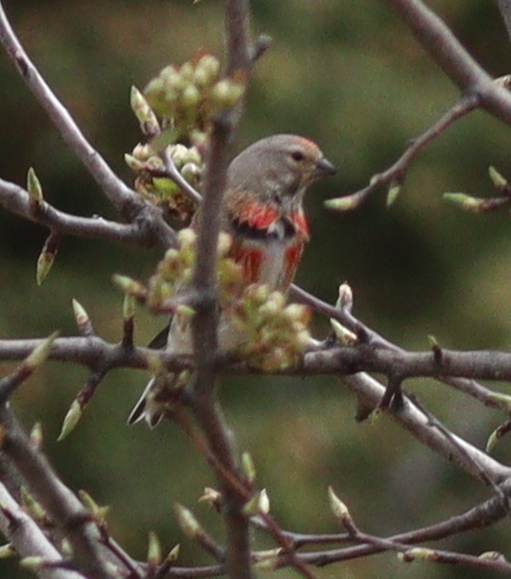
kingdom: Animalia
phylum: Chordata
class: Aves
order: Passeriformes
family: Fringillidae
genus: Linaria
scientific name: Linaria cannabina
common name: Common linnet
